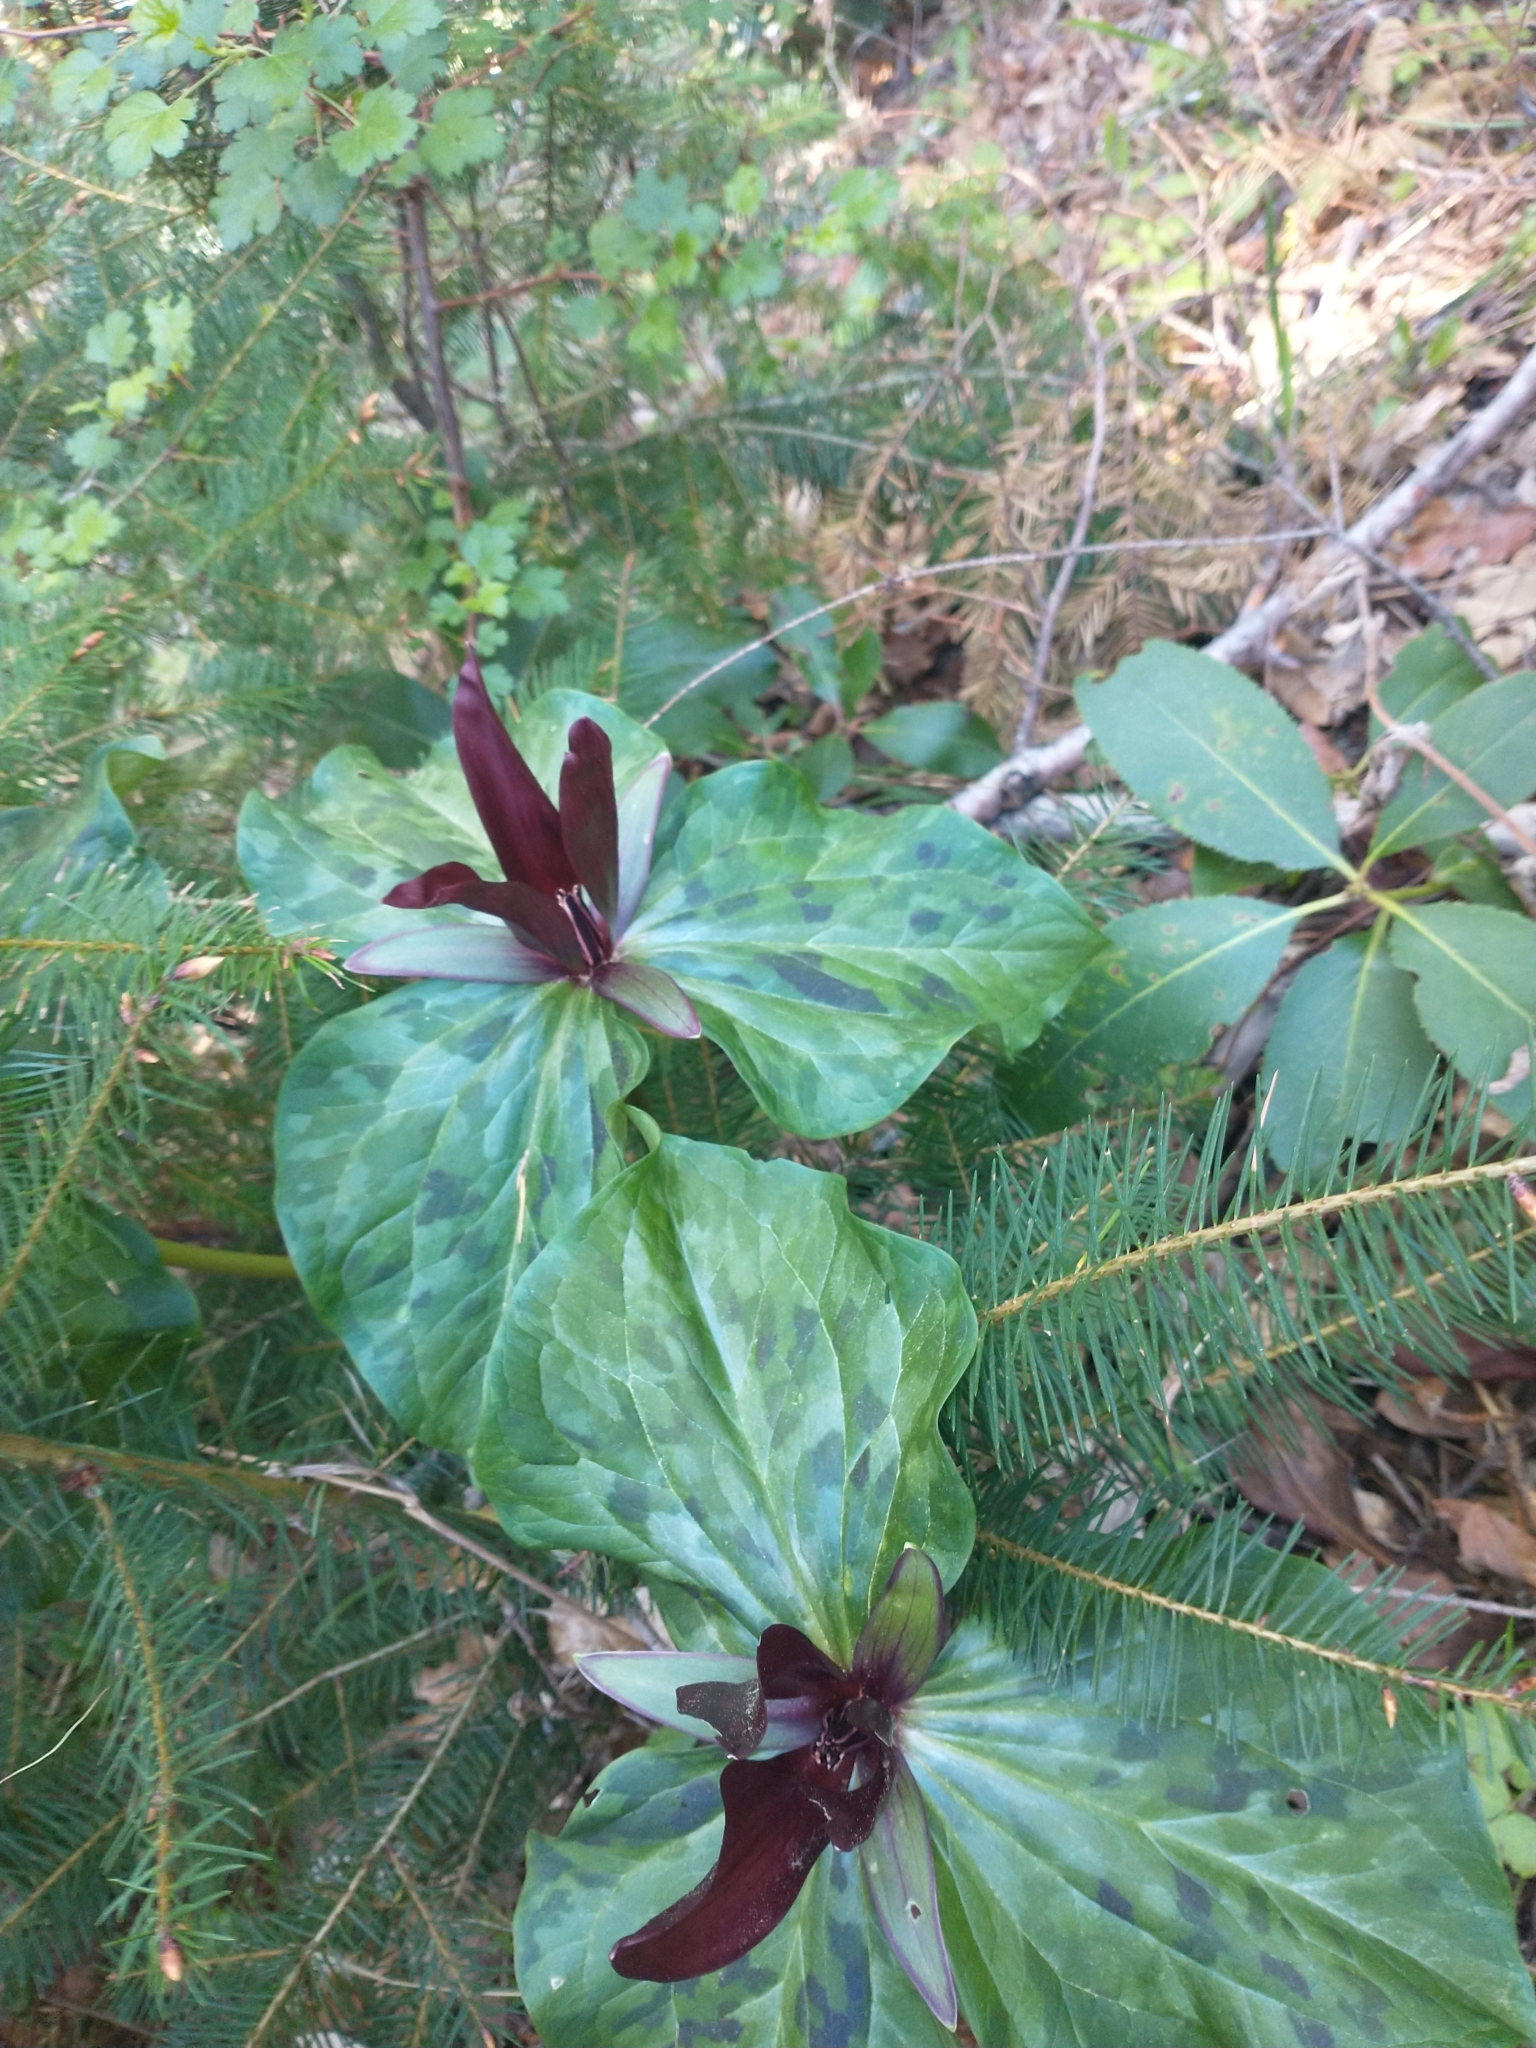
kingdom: Plantae
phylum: Tracheophyta
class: Liliopsida
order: Liliales
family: Melanthiaceae
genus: Trillium
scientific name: Trillium kurabayashii
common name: Giant purple trillium
